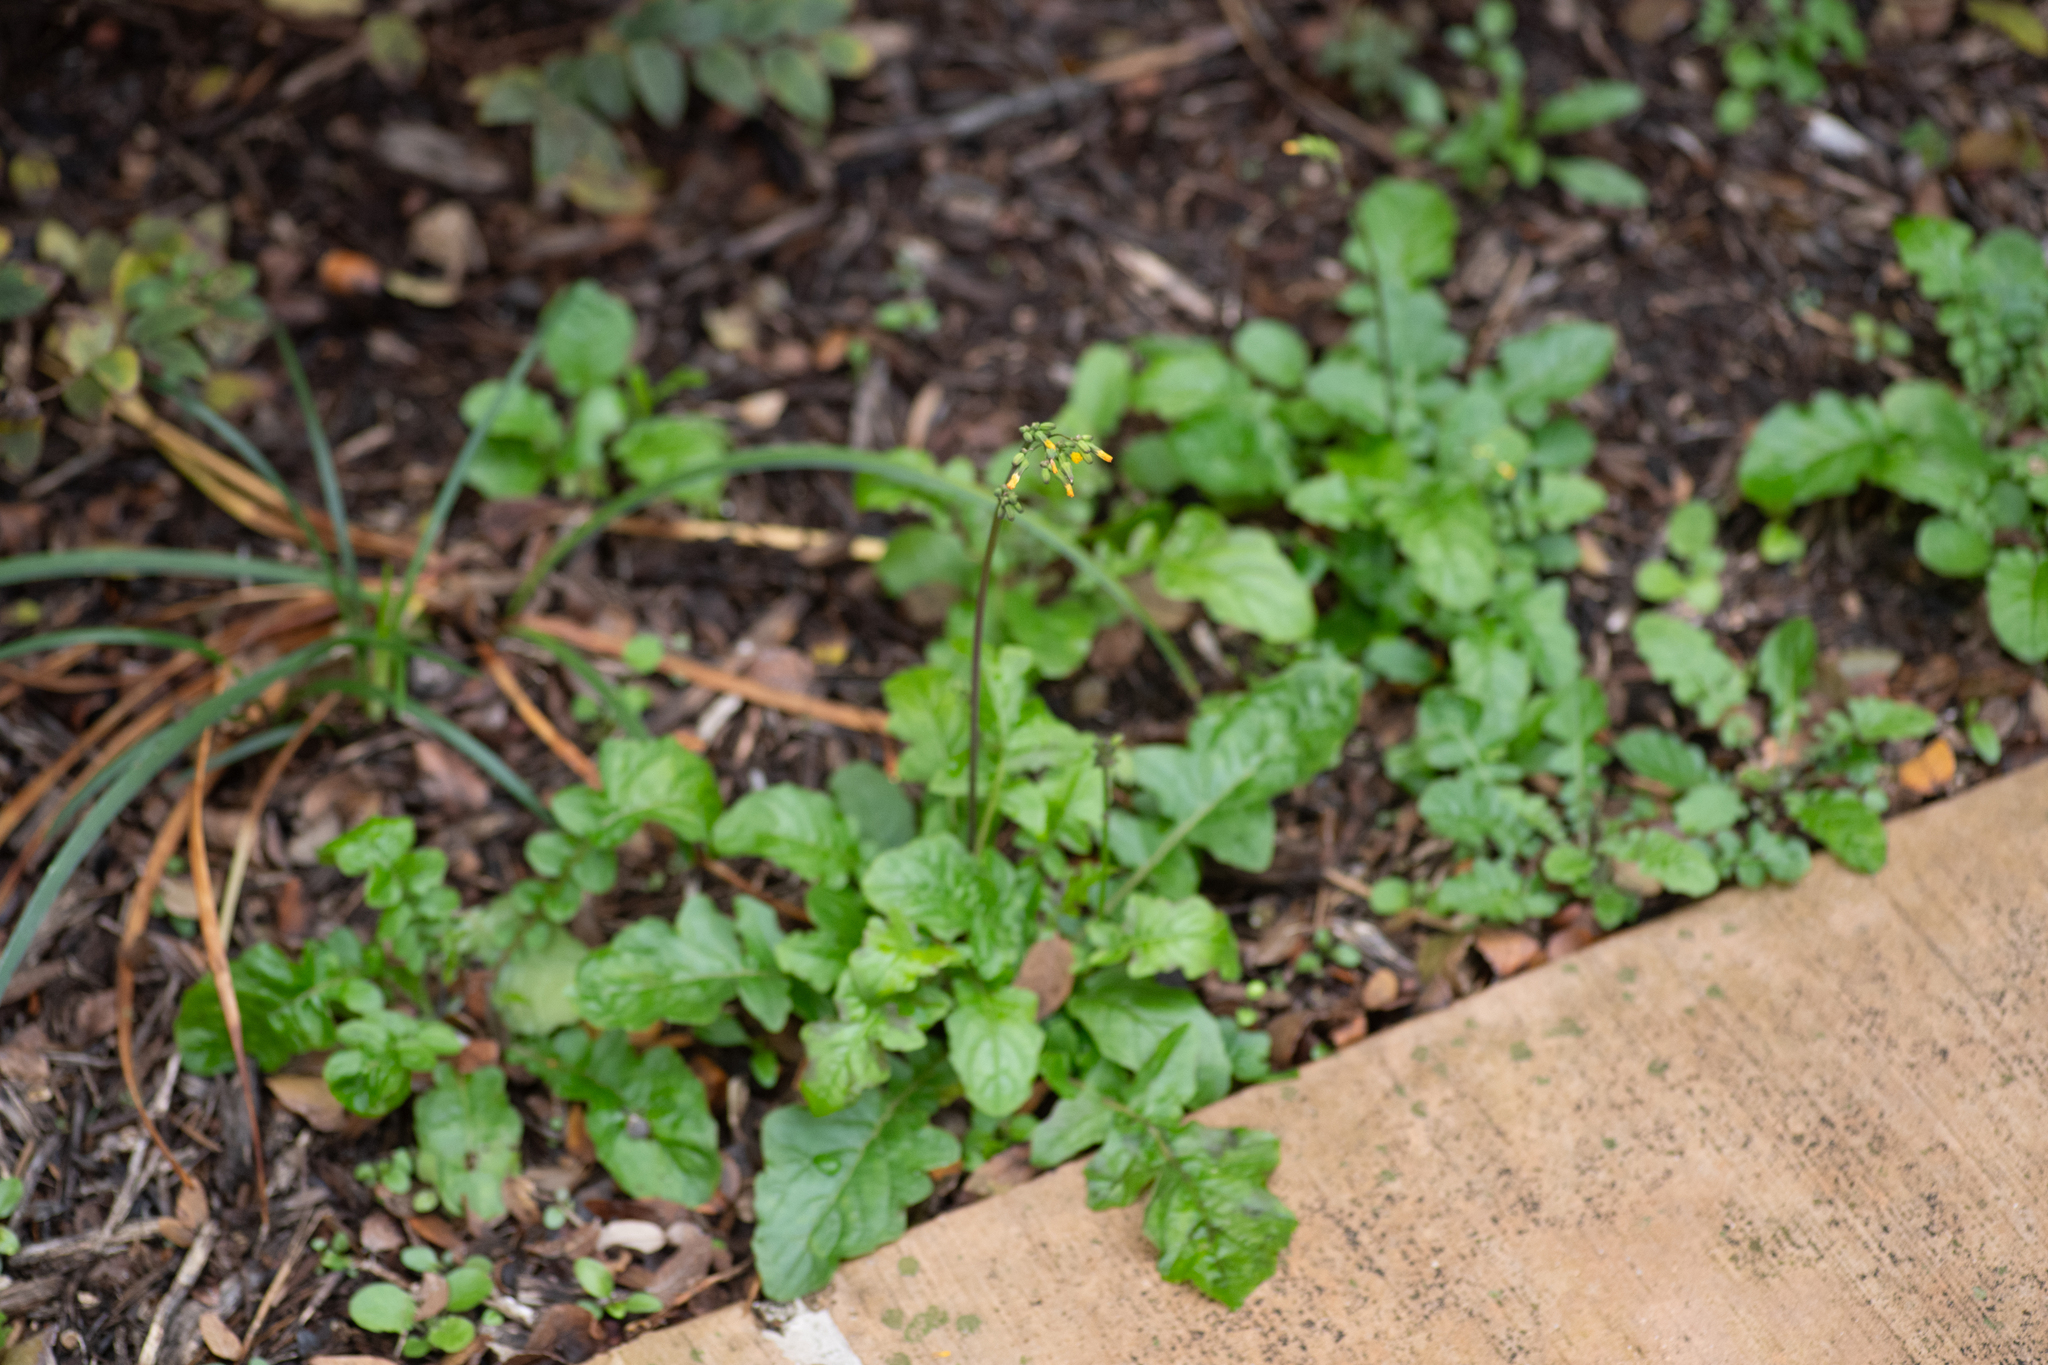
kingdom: Plantae
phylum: Tracheophyta
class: Magnoliopsida
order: Asterales
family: Asteraceae
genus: Youngia
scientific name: Youngia japonica
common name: Oriental false hawksbeard
